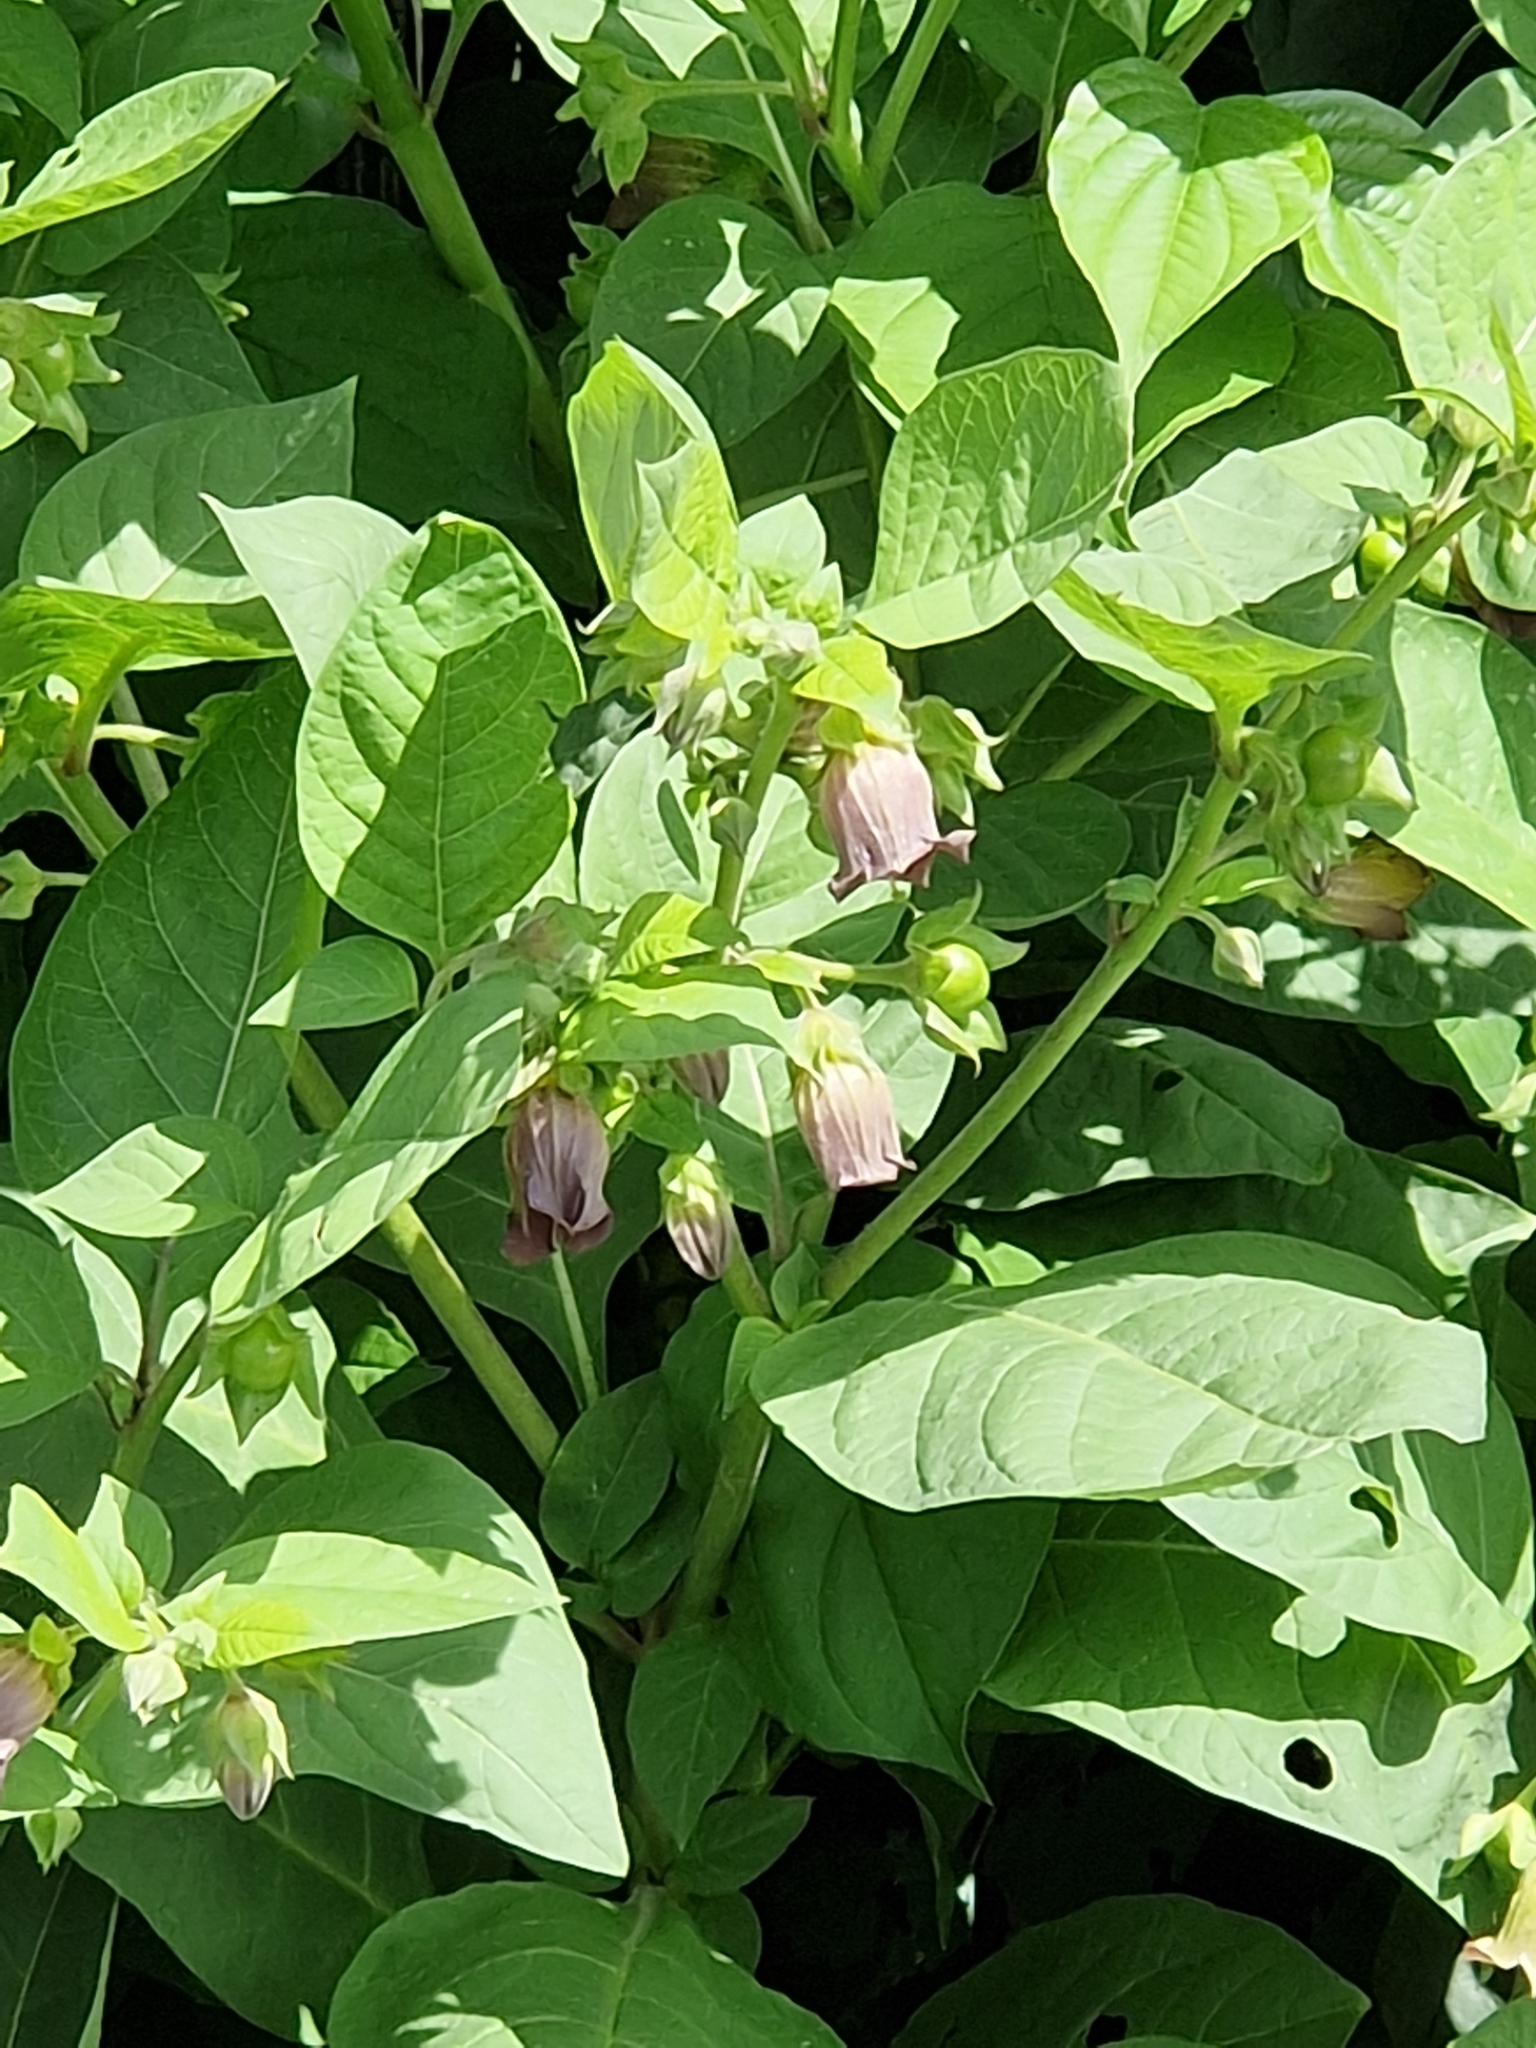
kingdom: Plantae
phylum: Tracheophyta
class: Magnoliopsida
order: Solanales
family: Solanaceae
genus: Atropa
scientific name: Atropa belladonna
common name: Deadly nightshade
